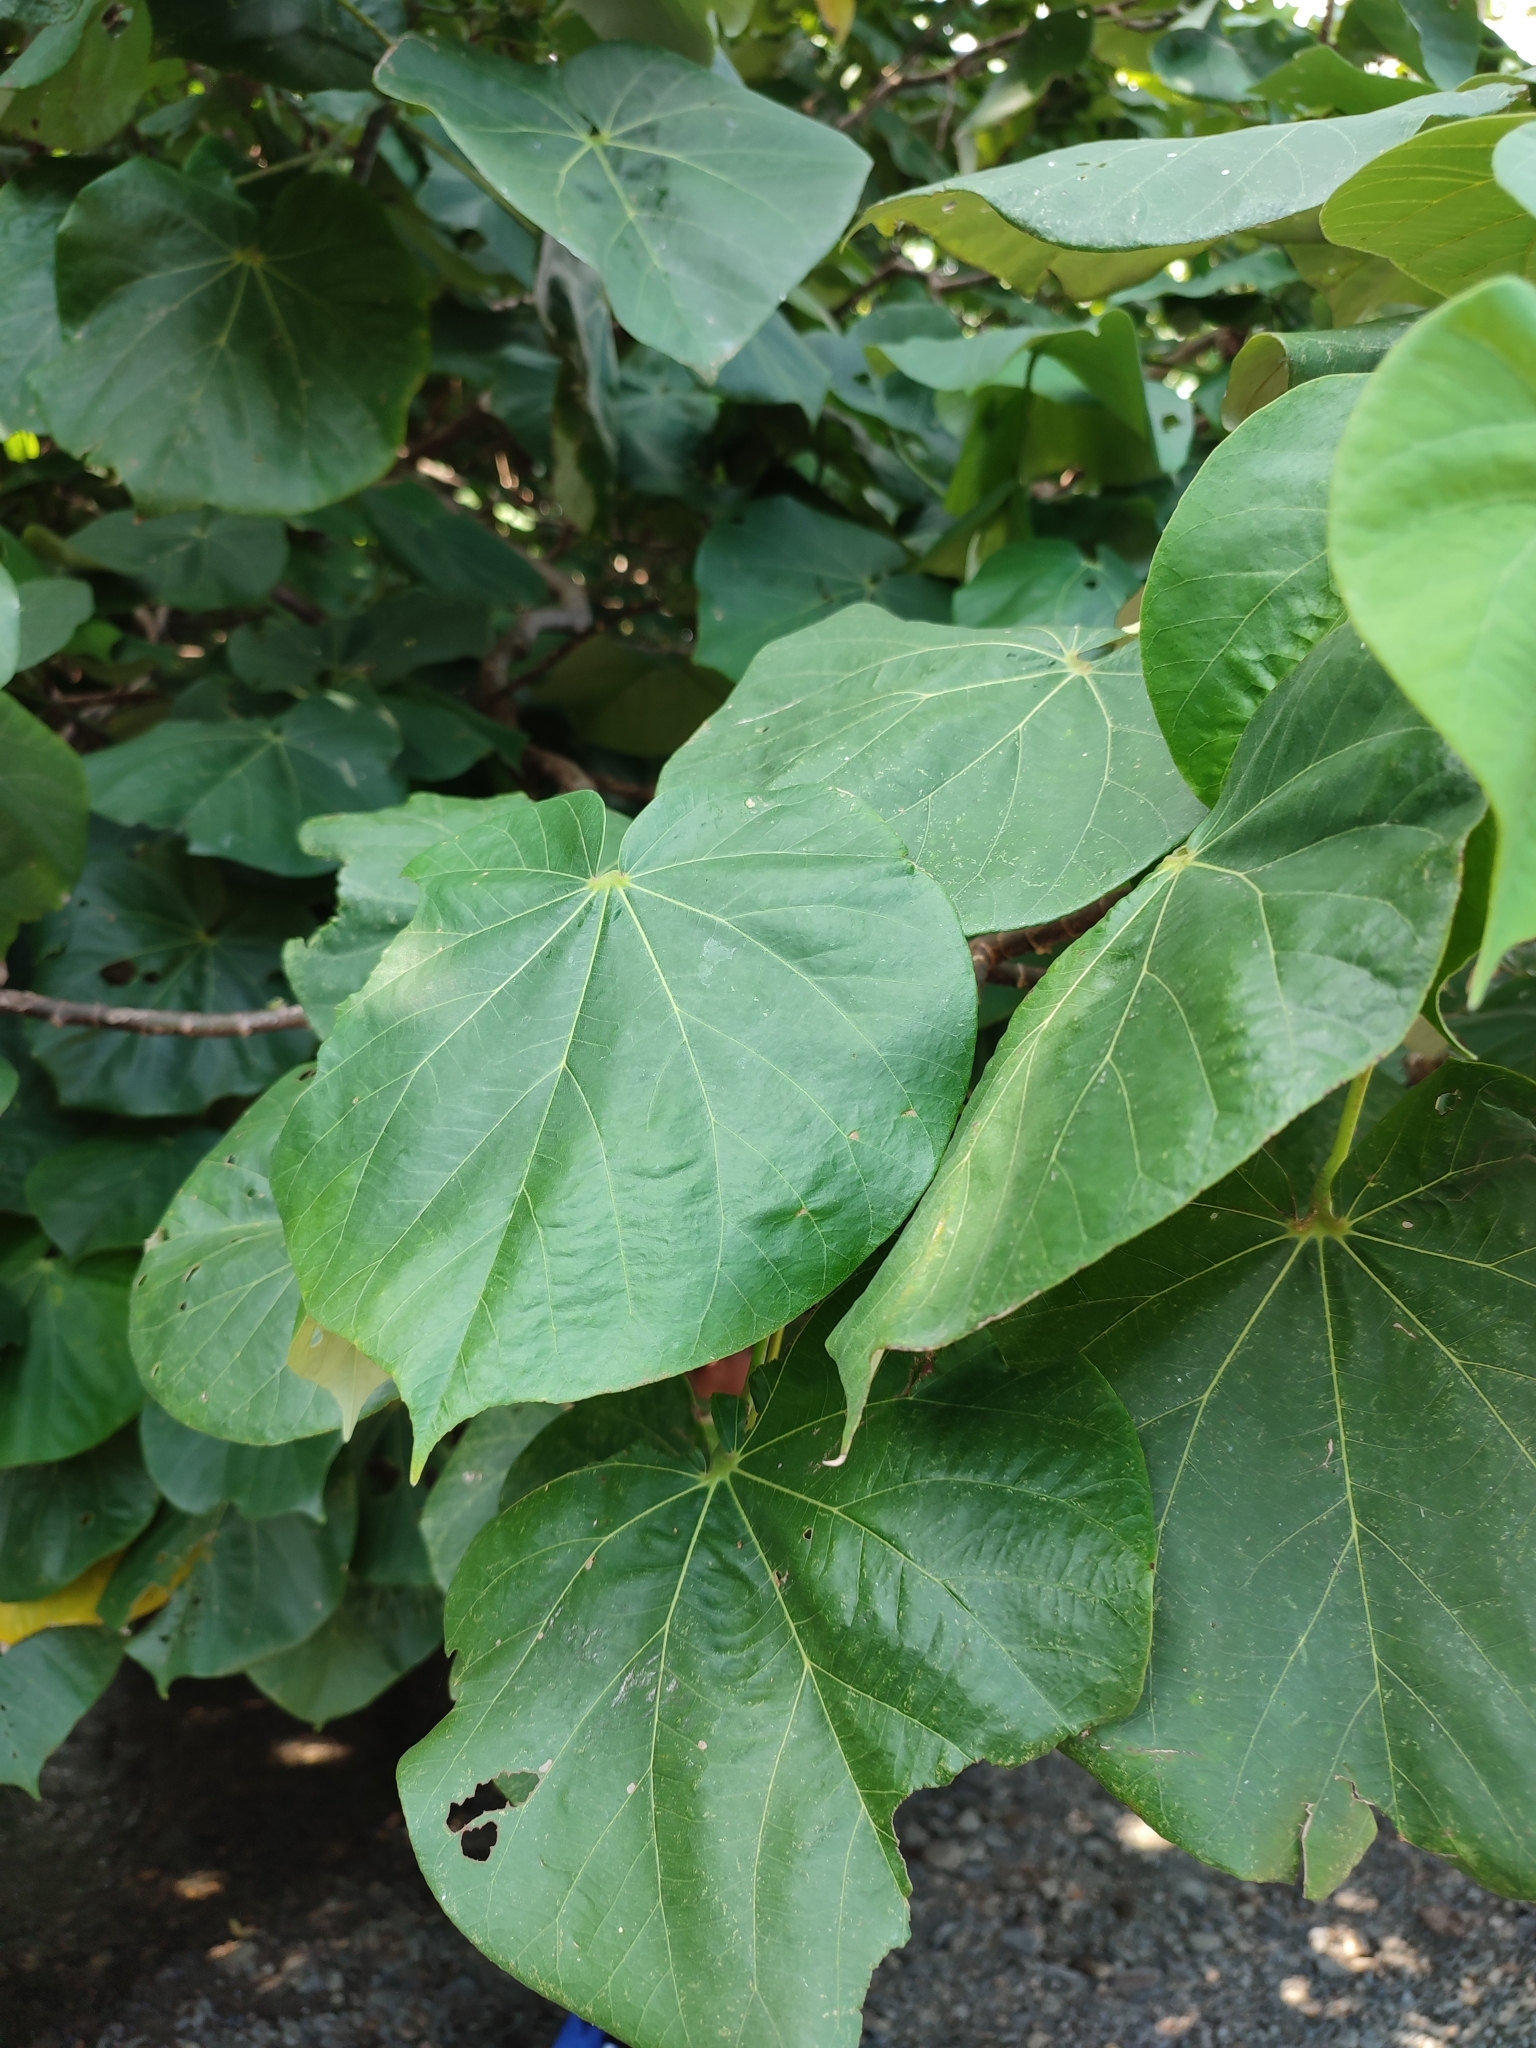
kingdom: Plantae
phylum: Tracheophyta
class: Magnoliopsida
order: Malvales
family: Malvaceae
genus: Talipariti
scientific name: Talipariti tiliaceum
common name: Sea hibiscus
